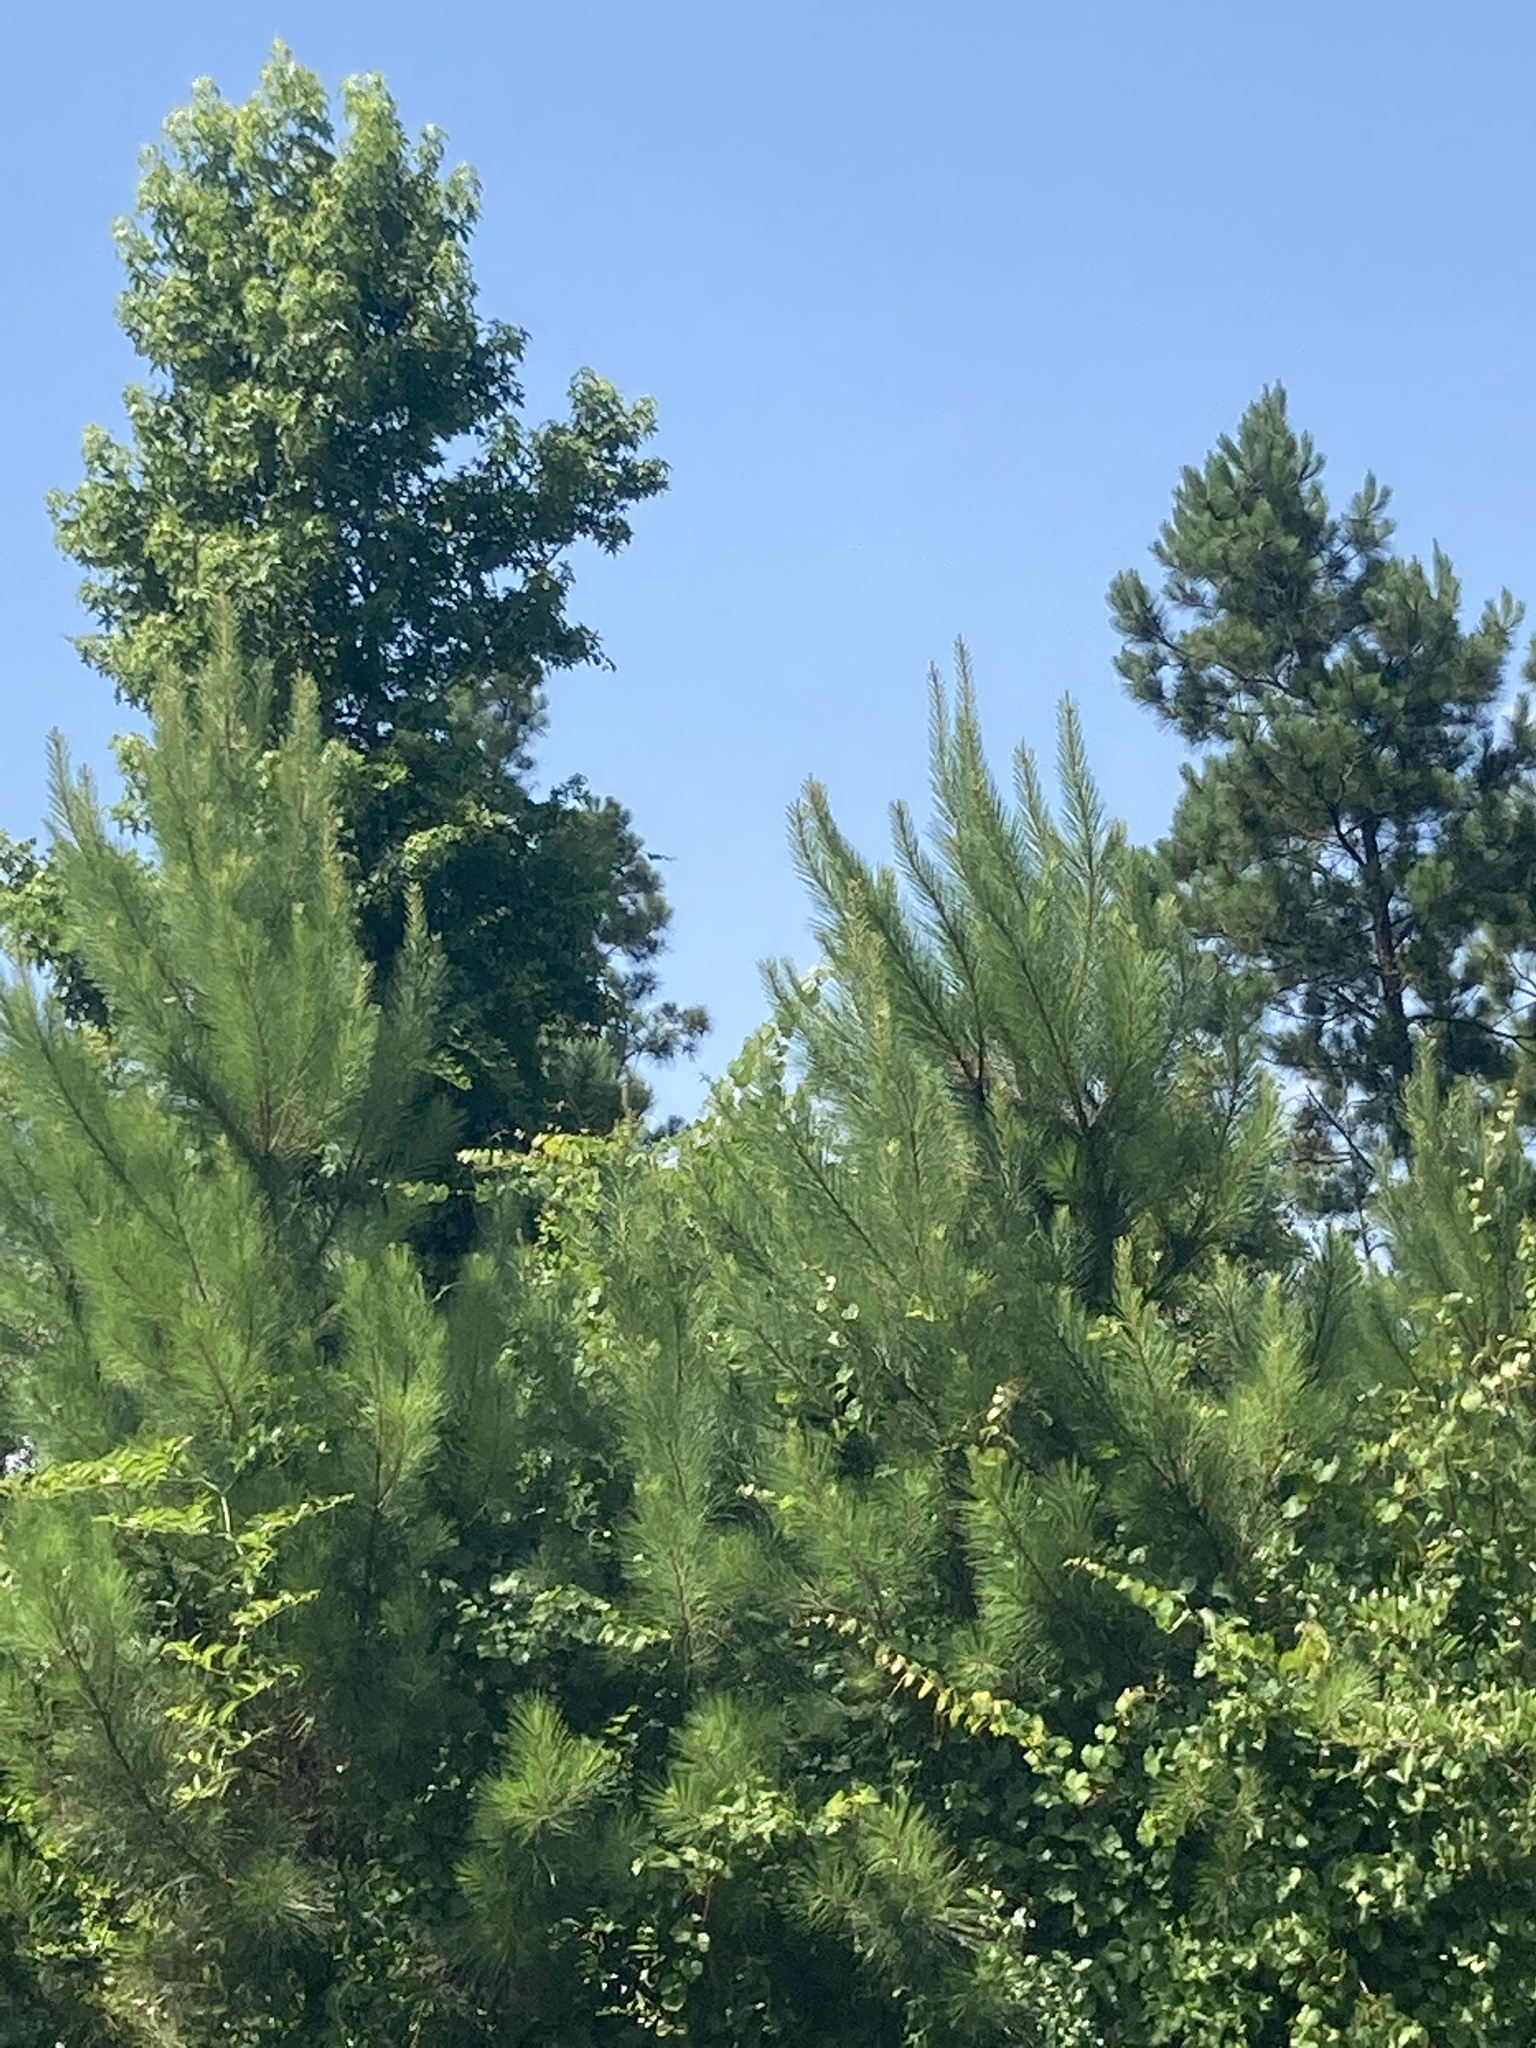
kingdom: Plantae
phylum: Tracheophyta
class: Pinopsida
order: Pinales
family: Pinaceae
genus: Pinus
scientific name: Pinus echinata
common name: Shortleaf pine
